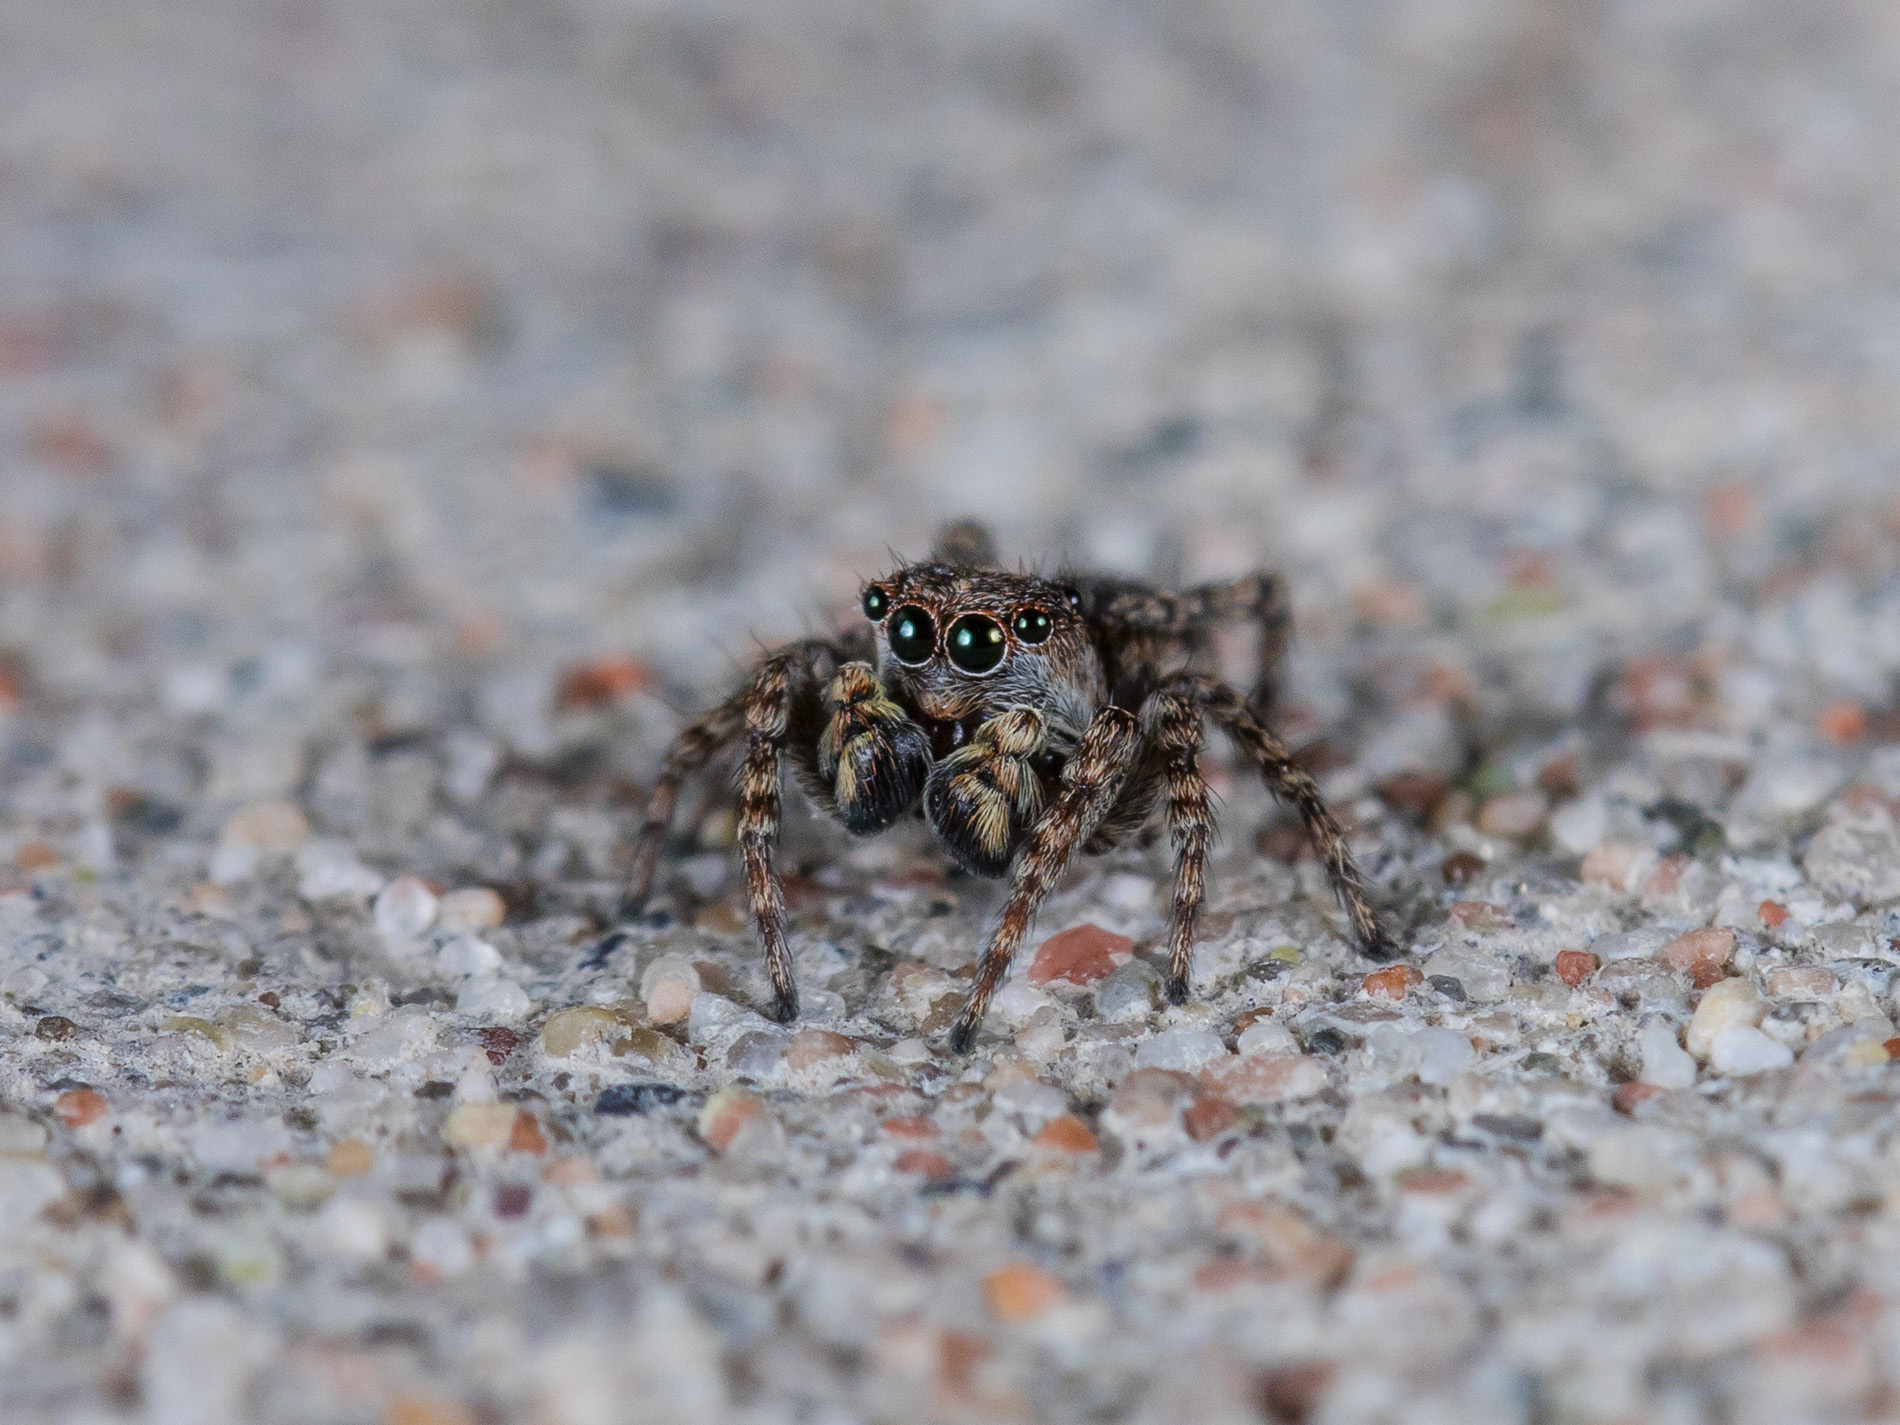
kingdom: Animalia
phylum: Arthropoda
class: Arachnida
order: Araneae
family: Salticidae
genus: Attulus
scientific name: Attulus fasciger
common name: Asiatic wall jumping spider
